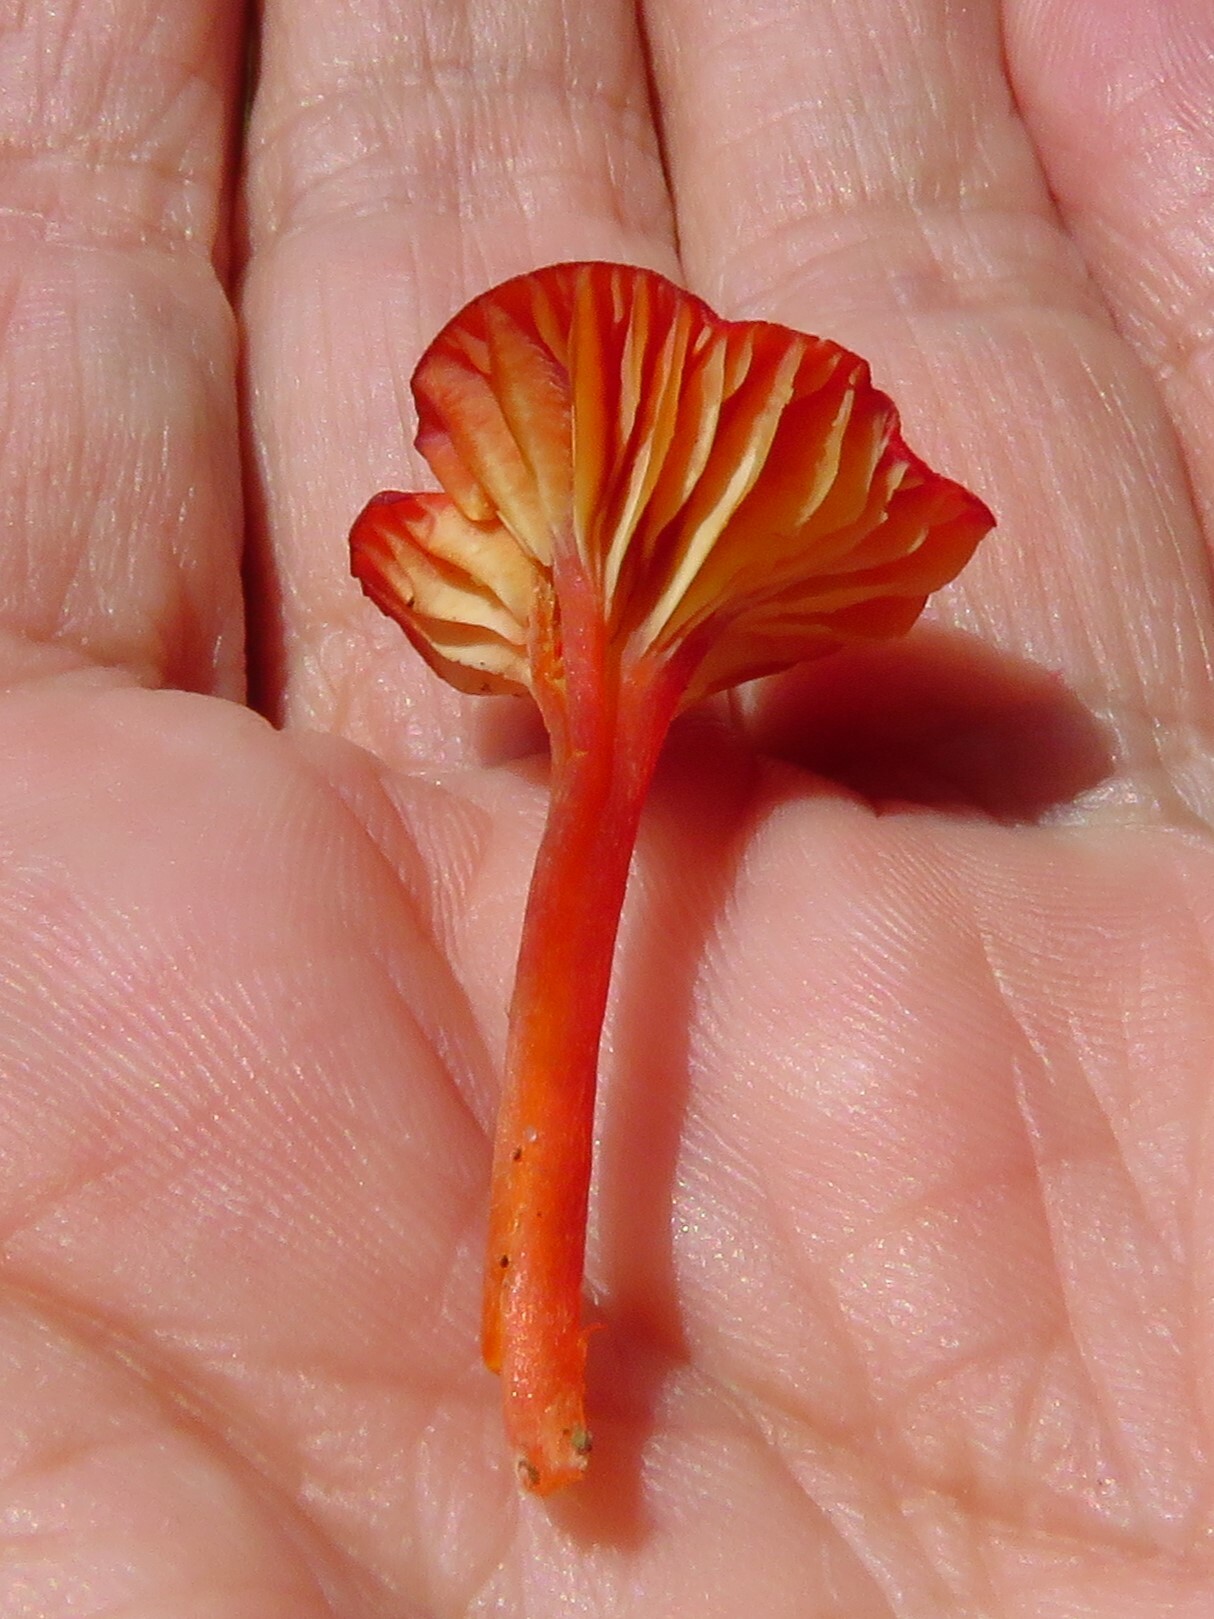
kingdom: Fungi
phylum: Basidiomycota
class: Agaricomycetes
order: Agaricales
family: Hygrophoraceae
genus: Hygrocybe
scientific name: Hygrocybe cantharellus
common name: Goblet waxcap
